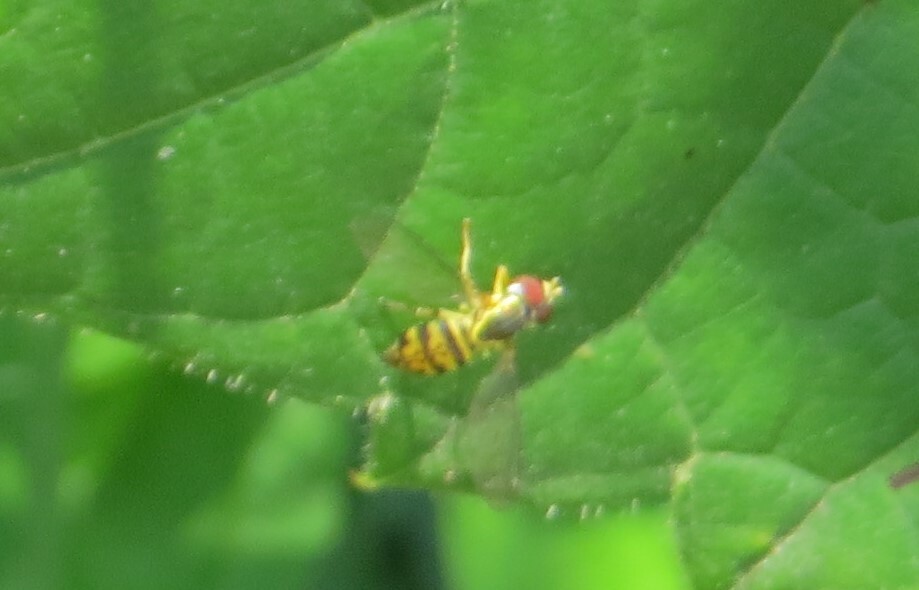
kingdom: Animalia
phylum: Arthropoda
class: Insecta
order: Diptera
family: Syrphidae
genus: Toxomerus
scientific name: Toxomerus geminatus
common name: Eastern calligrapher
